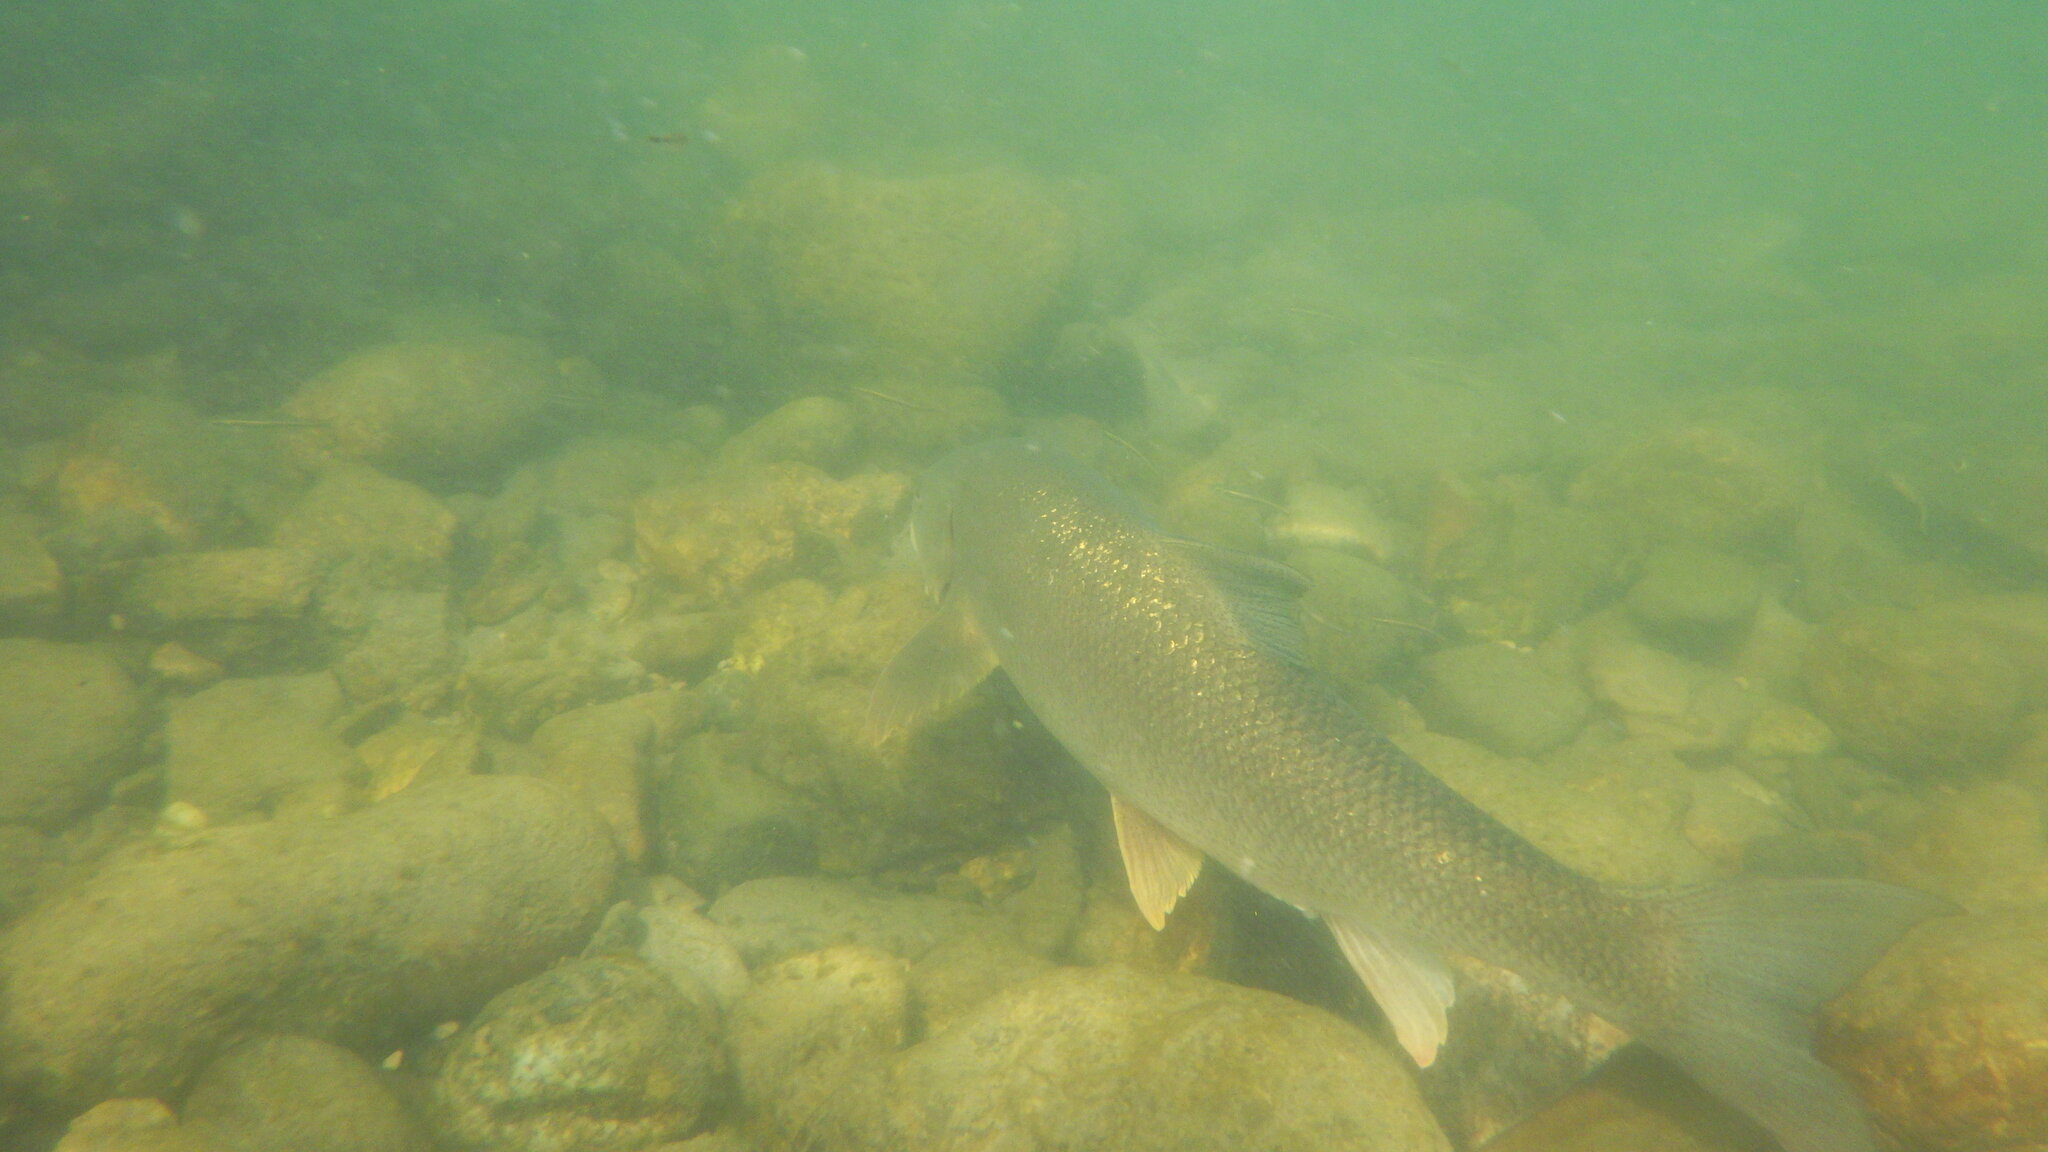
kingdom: Animalia
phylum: Chordata
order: Cypriniformes
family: Cyprinidae
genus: Barbus
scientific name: Barbus barbus
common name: Barbel
